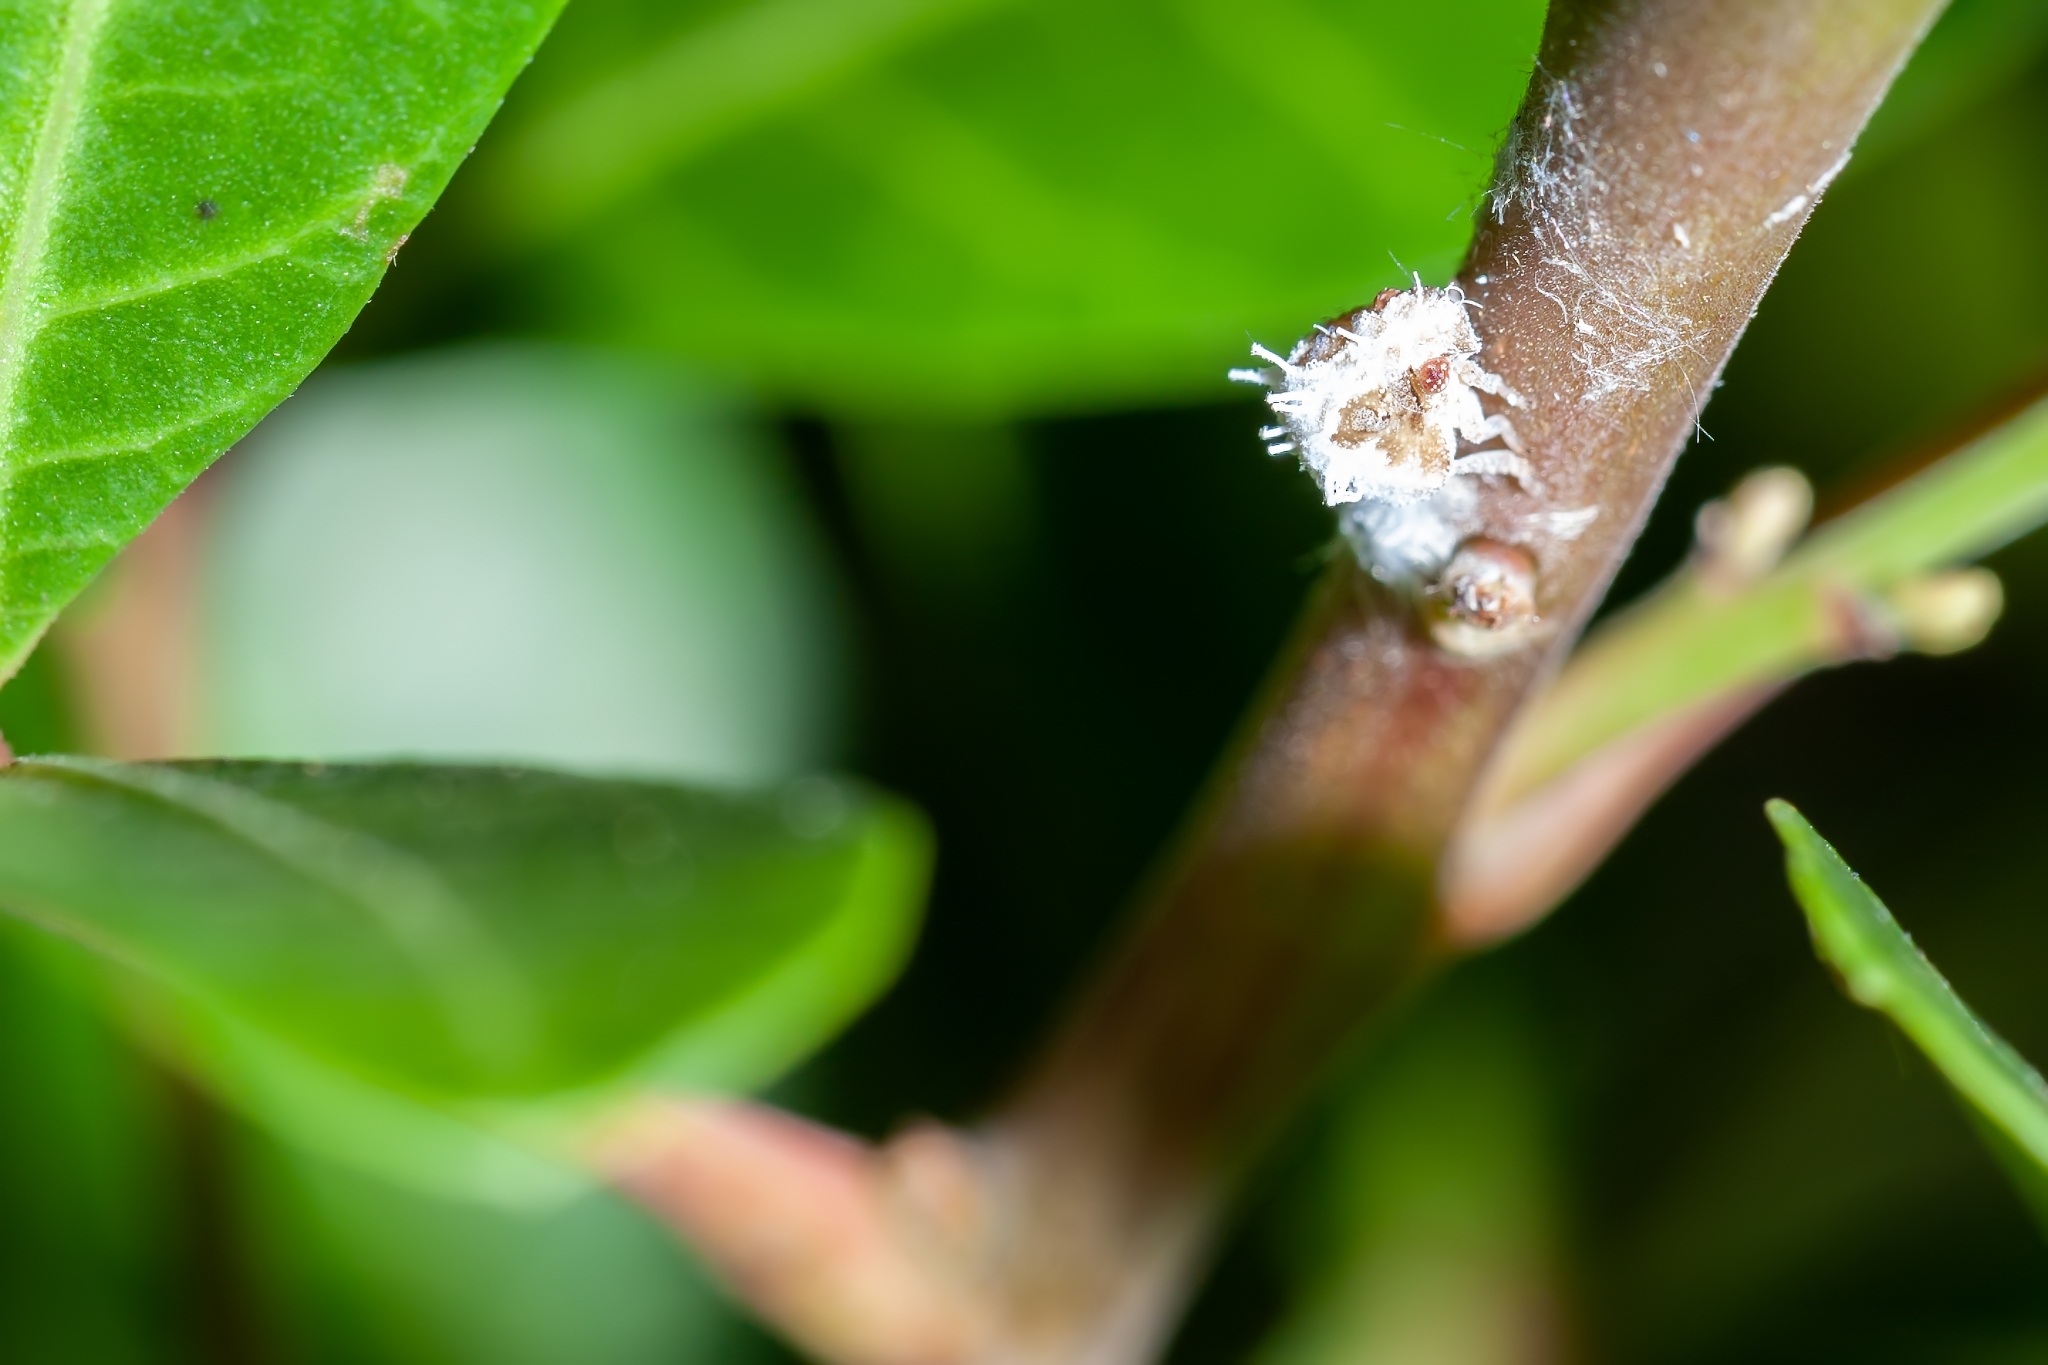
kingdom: Animalia
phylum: Arthropoda
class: Insecta
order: Coleoptera
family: Coccinellidae
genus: Cryptolaemus
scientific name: Cryptolaemus montrouzieri
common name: Mealybug destroyer
